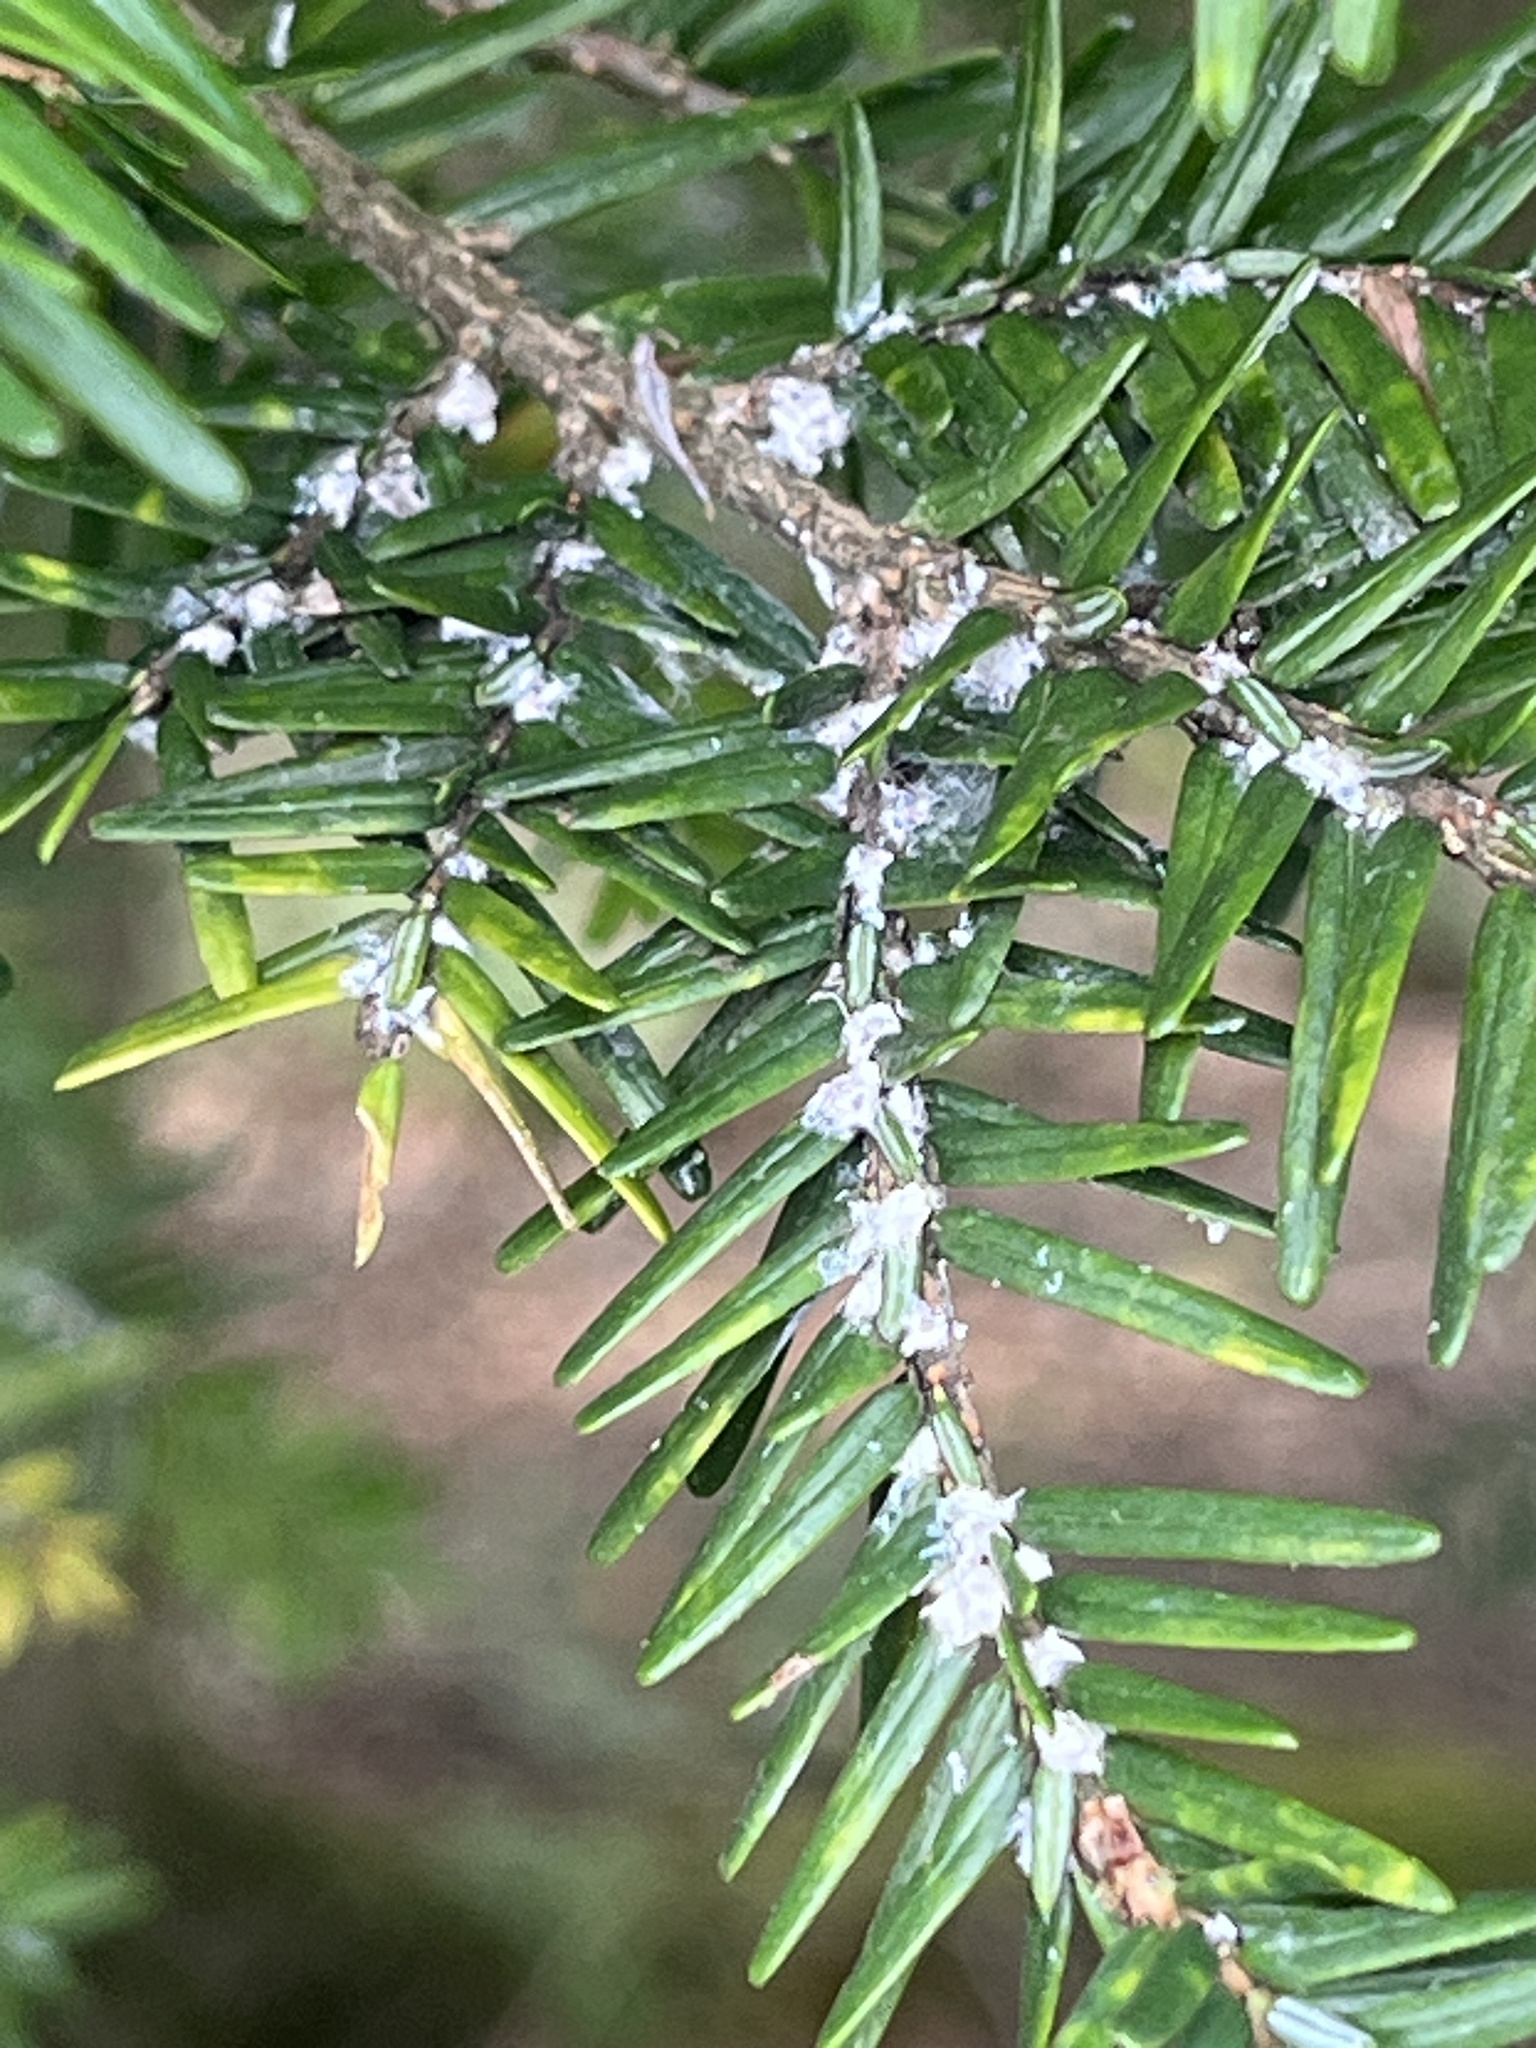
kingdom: Animalia
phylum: Arthropoda
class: Insecta
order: Hemiptera
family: Adelgidae
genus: Adelges
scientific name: Adelges tsugae
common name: Hemlock woolly adelgid
